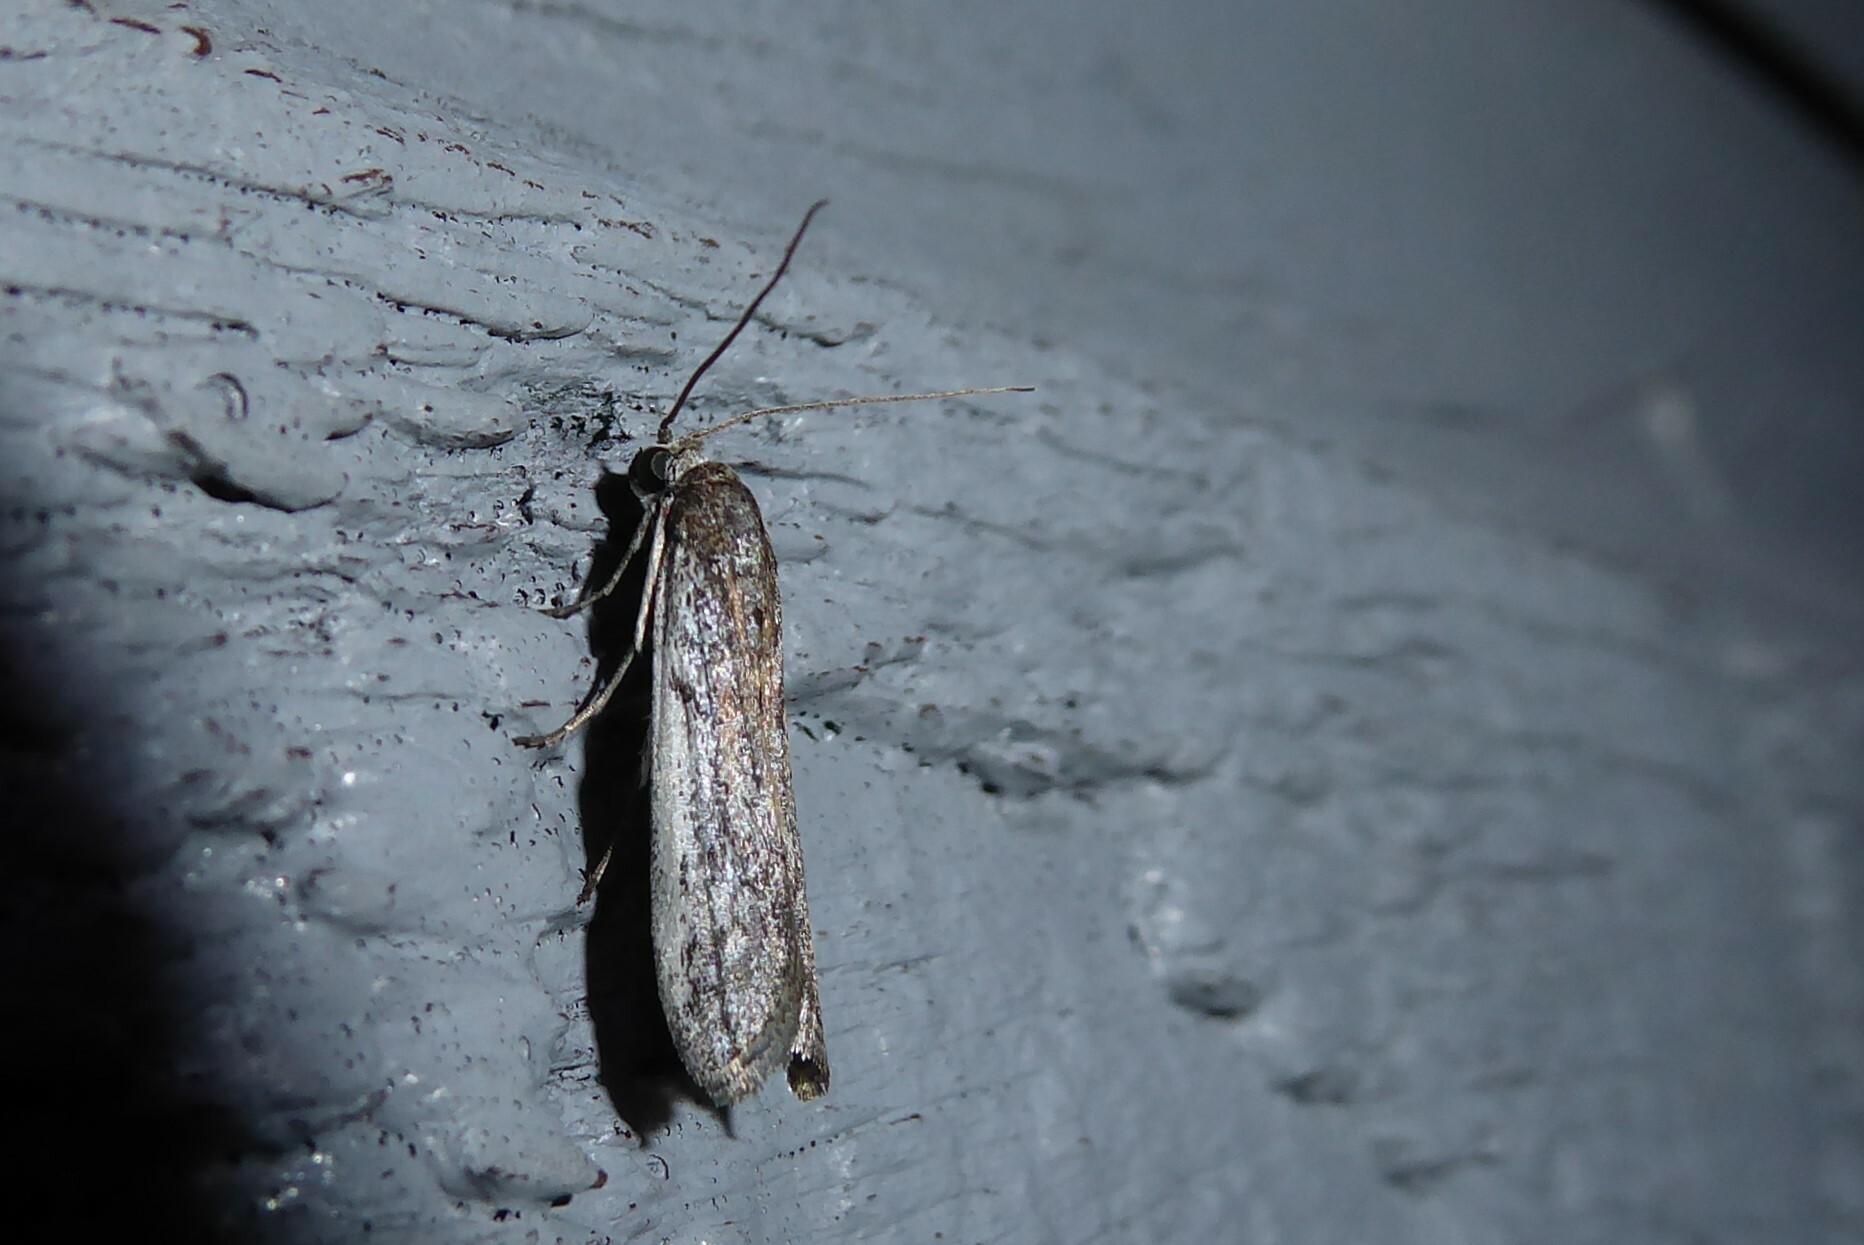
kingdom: Animalia
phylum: Arthropoda
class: Insecta
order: Lepidoptera
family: Pyralidae
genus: Patagoniodes
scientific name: Patagoniodes farinaria
